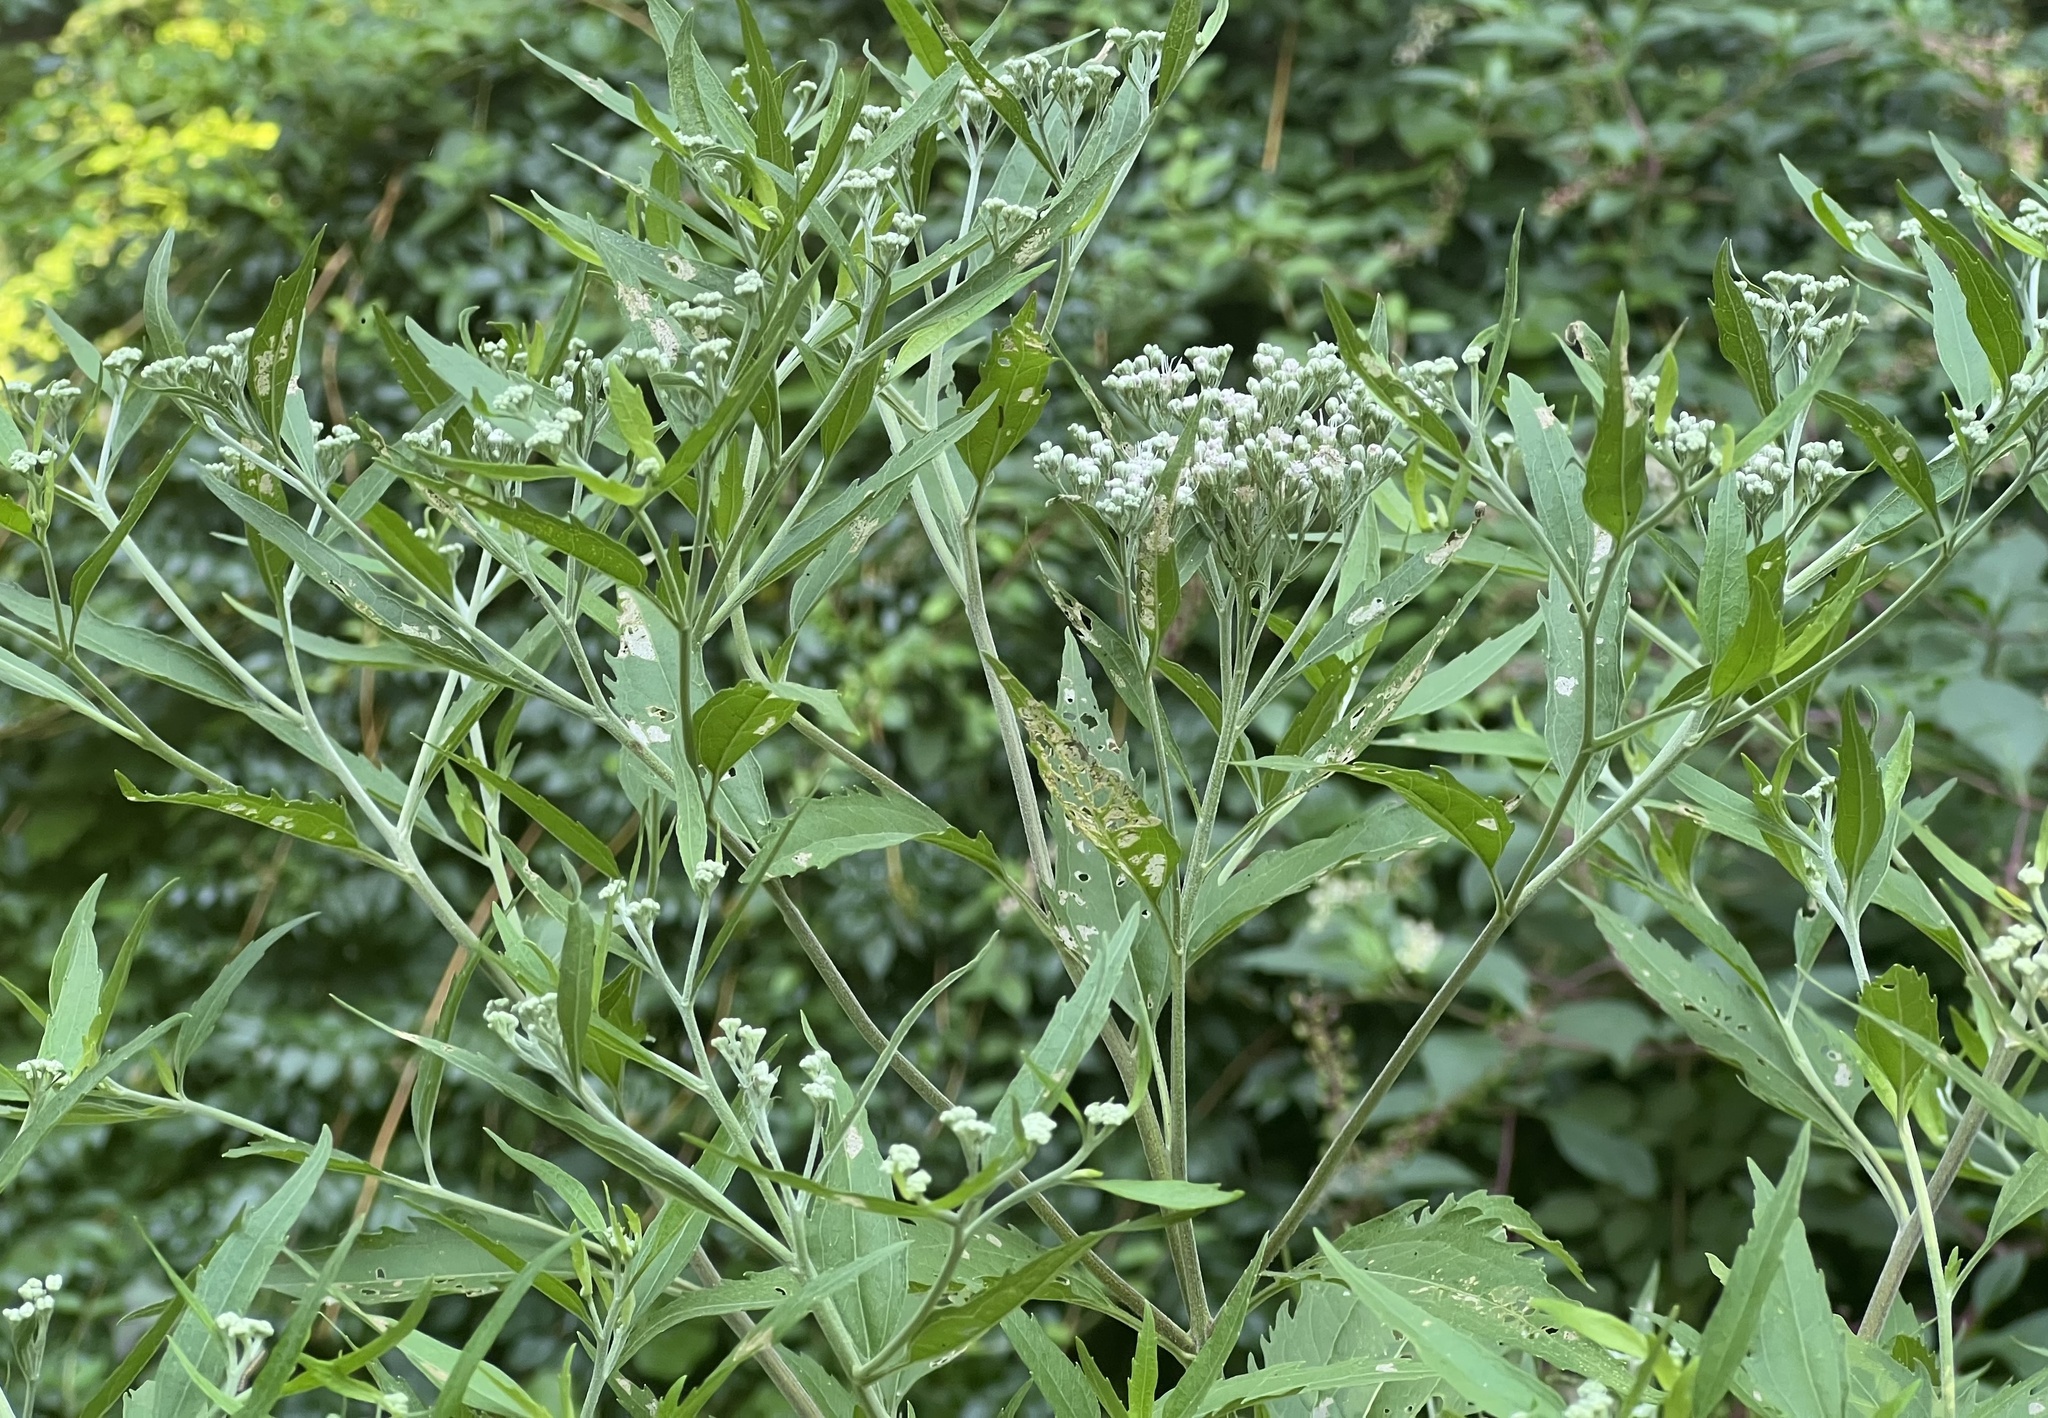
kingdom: Plantae
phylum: Tracheophyta
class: Magnoliopsida
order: Asterales
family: Asteraceae
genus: Eupatorium
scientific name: Eupatorium serotinum
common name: Late boneset
